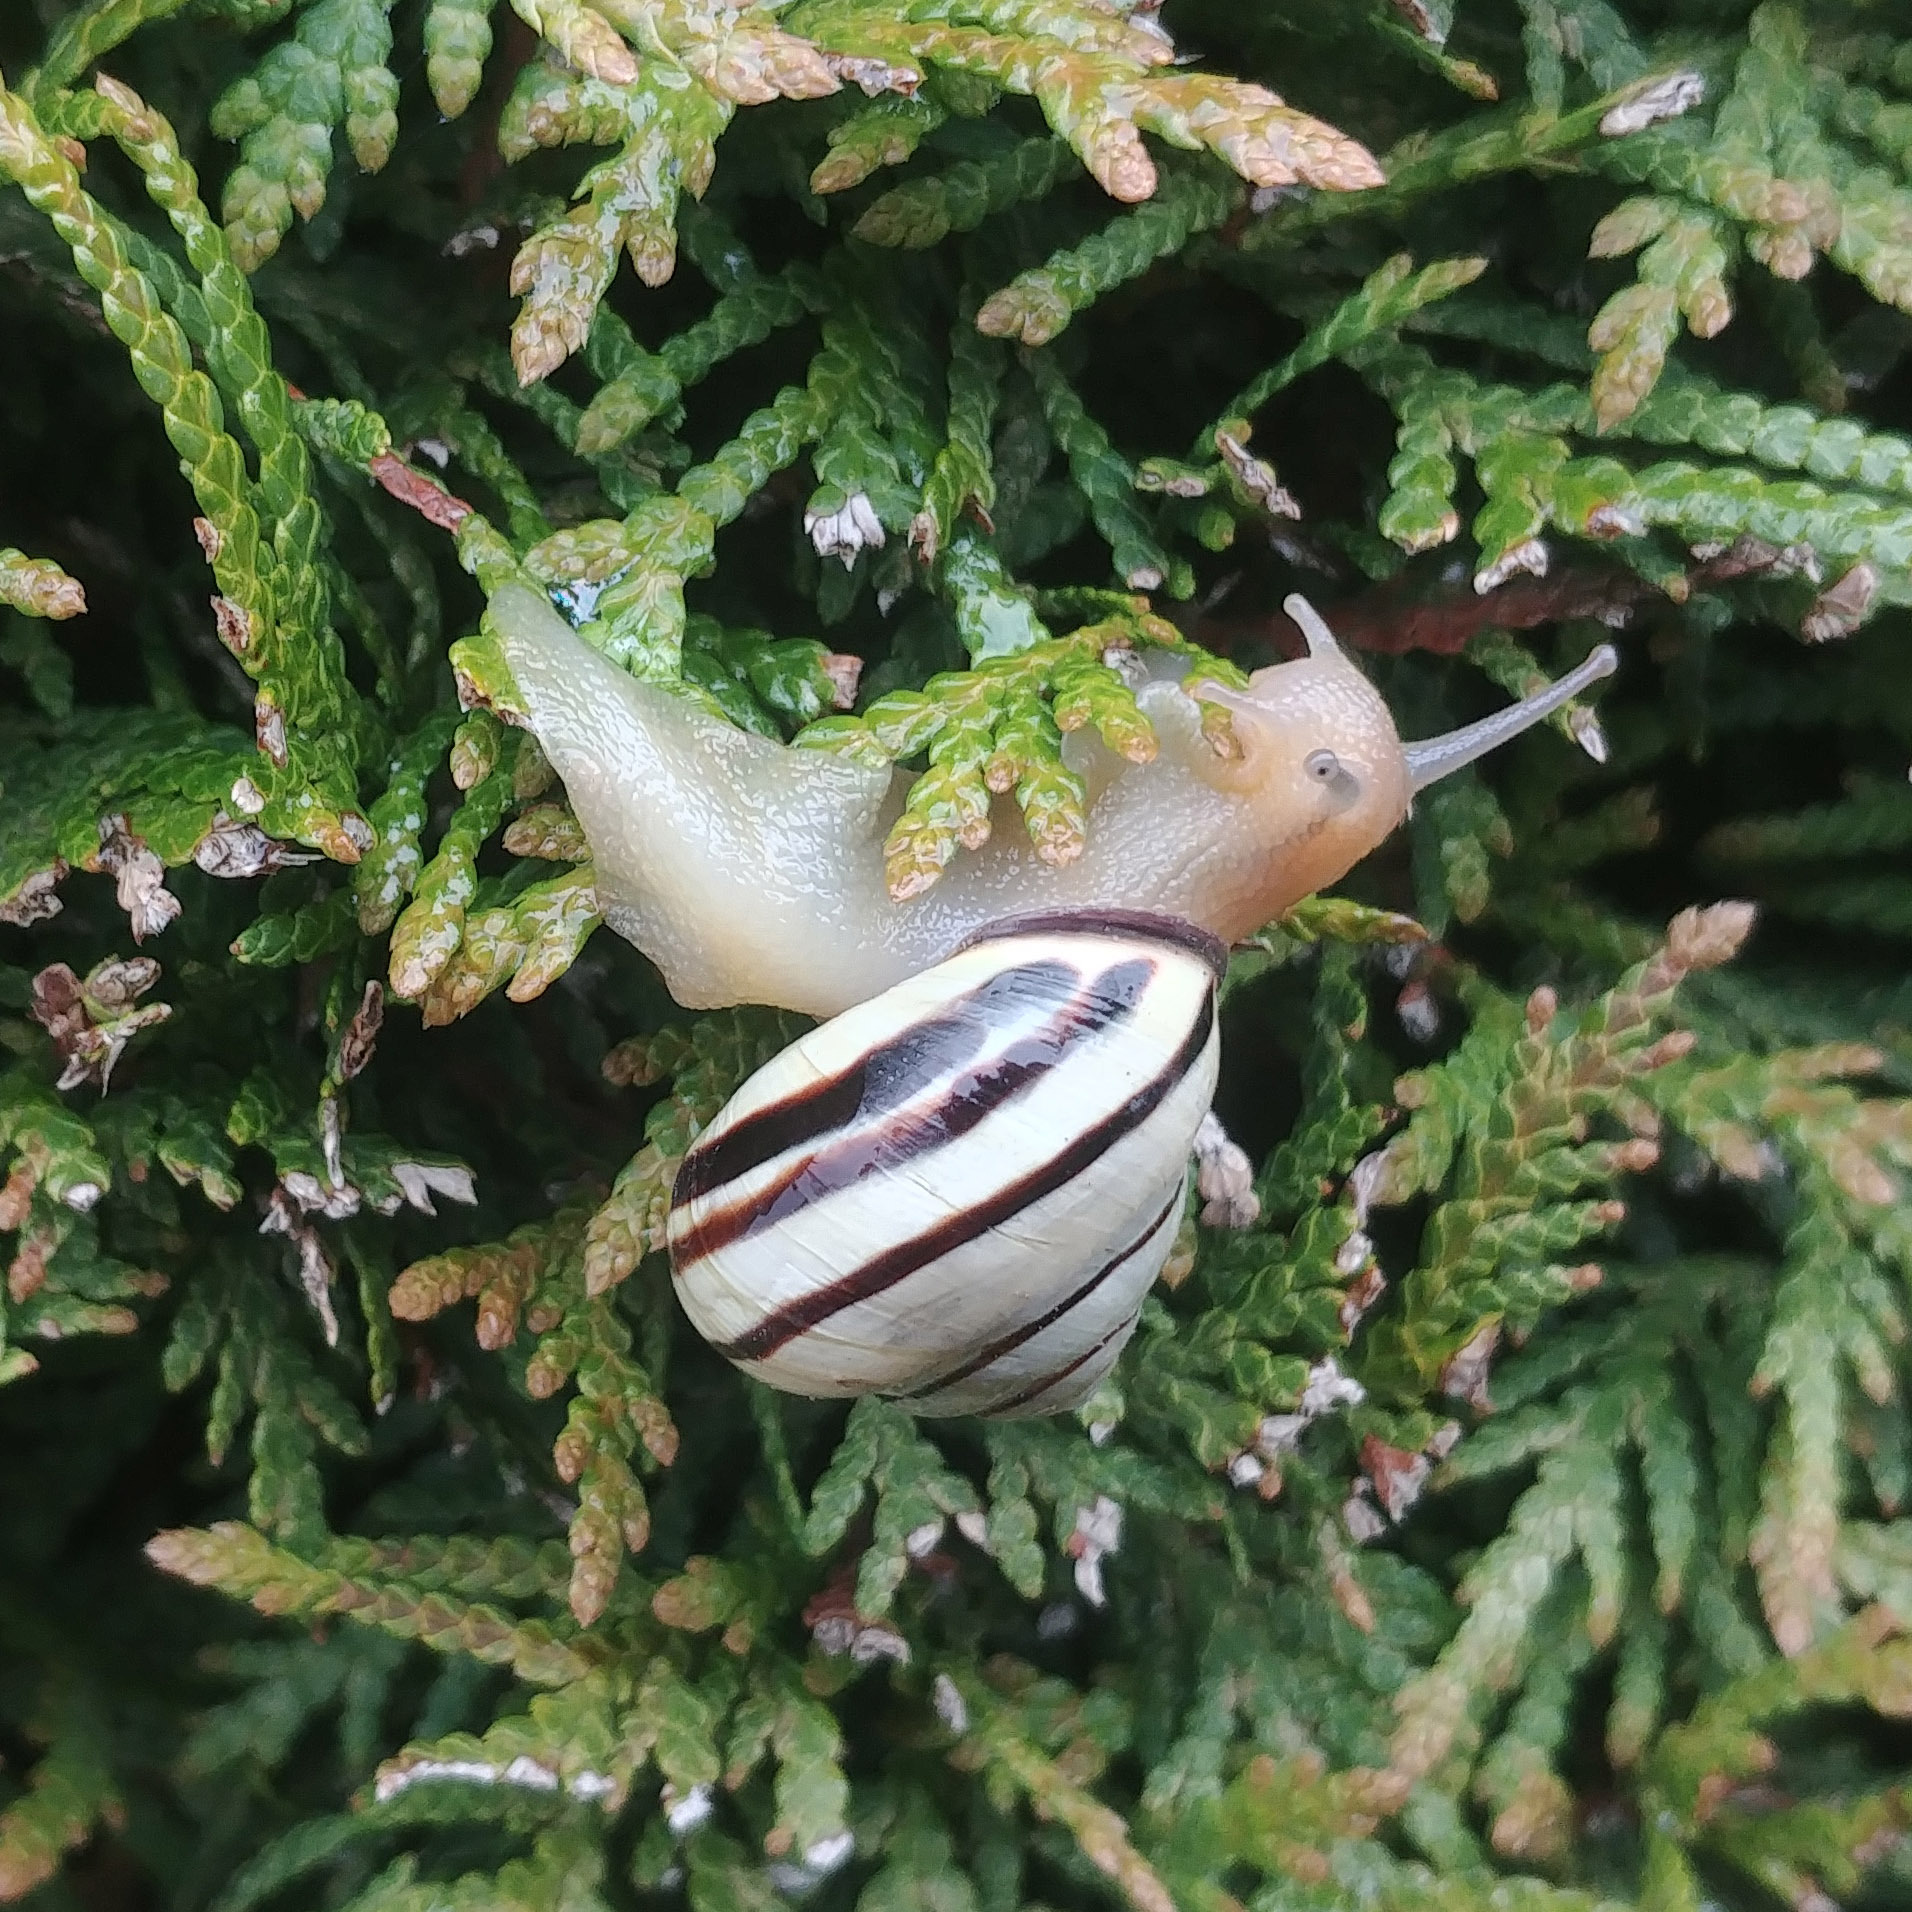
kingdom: Animalia
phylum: Mollusca
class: Gastropoda
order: Stylommatophora
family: Helicidae
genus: Cepaea
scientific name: Cepaea nemoralis
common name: Grovesnail
